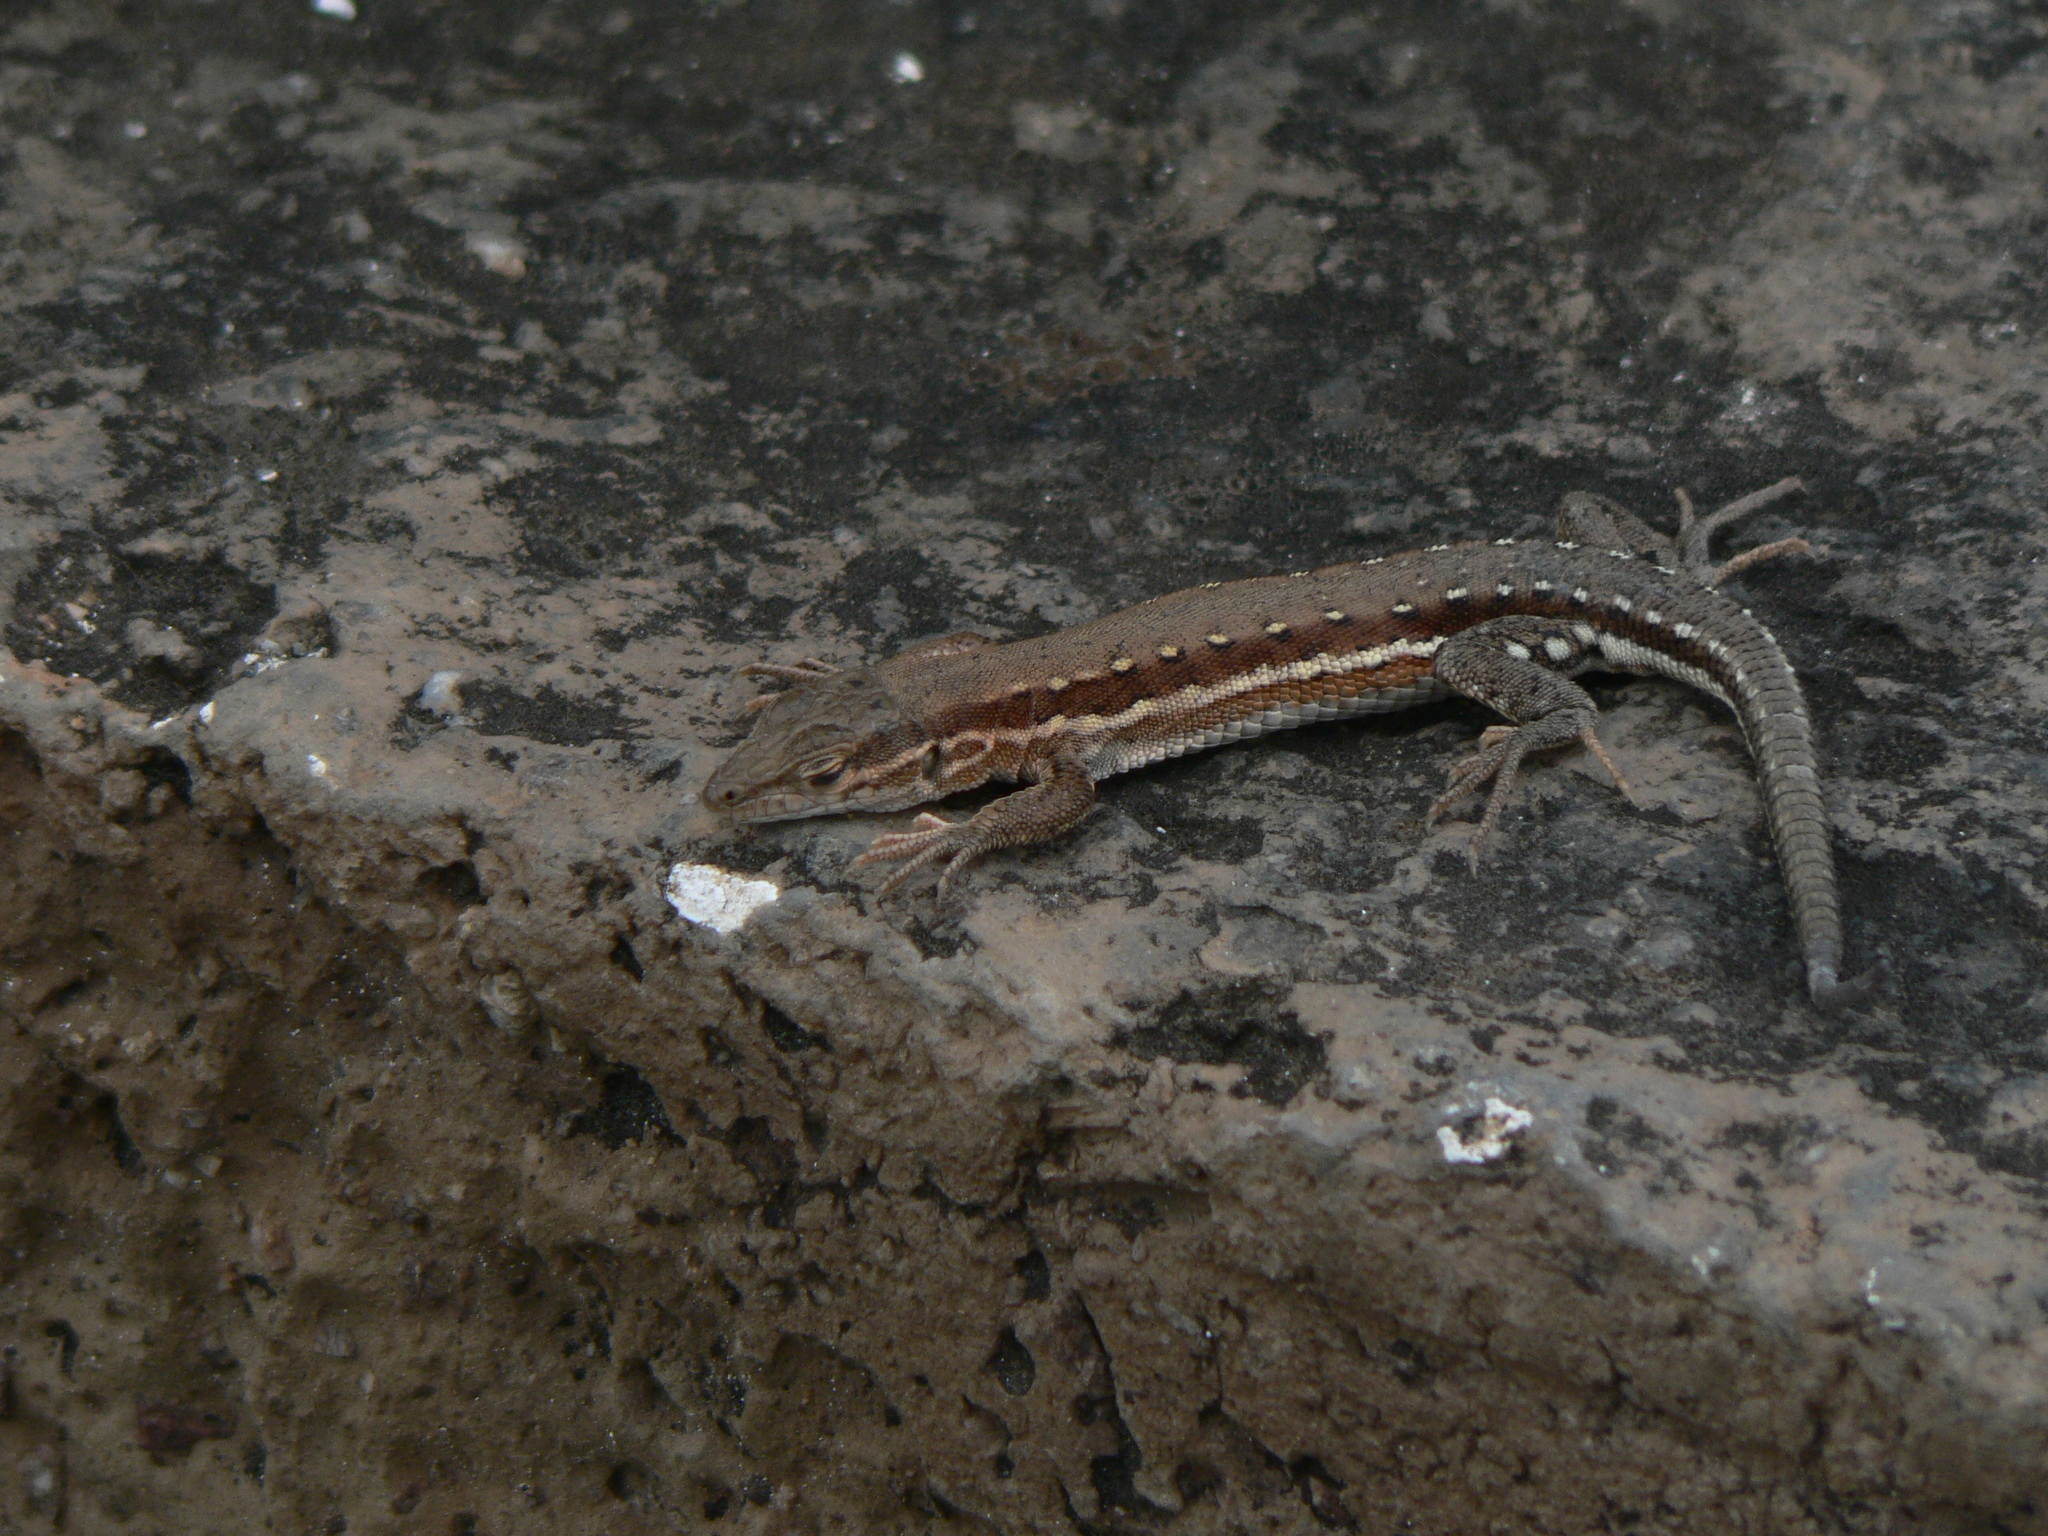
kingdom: Animalia
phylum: Chordata
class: Squamata
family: Lacertidae
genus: Eremias
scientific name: Eremias brenchleyi
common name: Ordos racerunner
